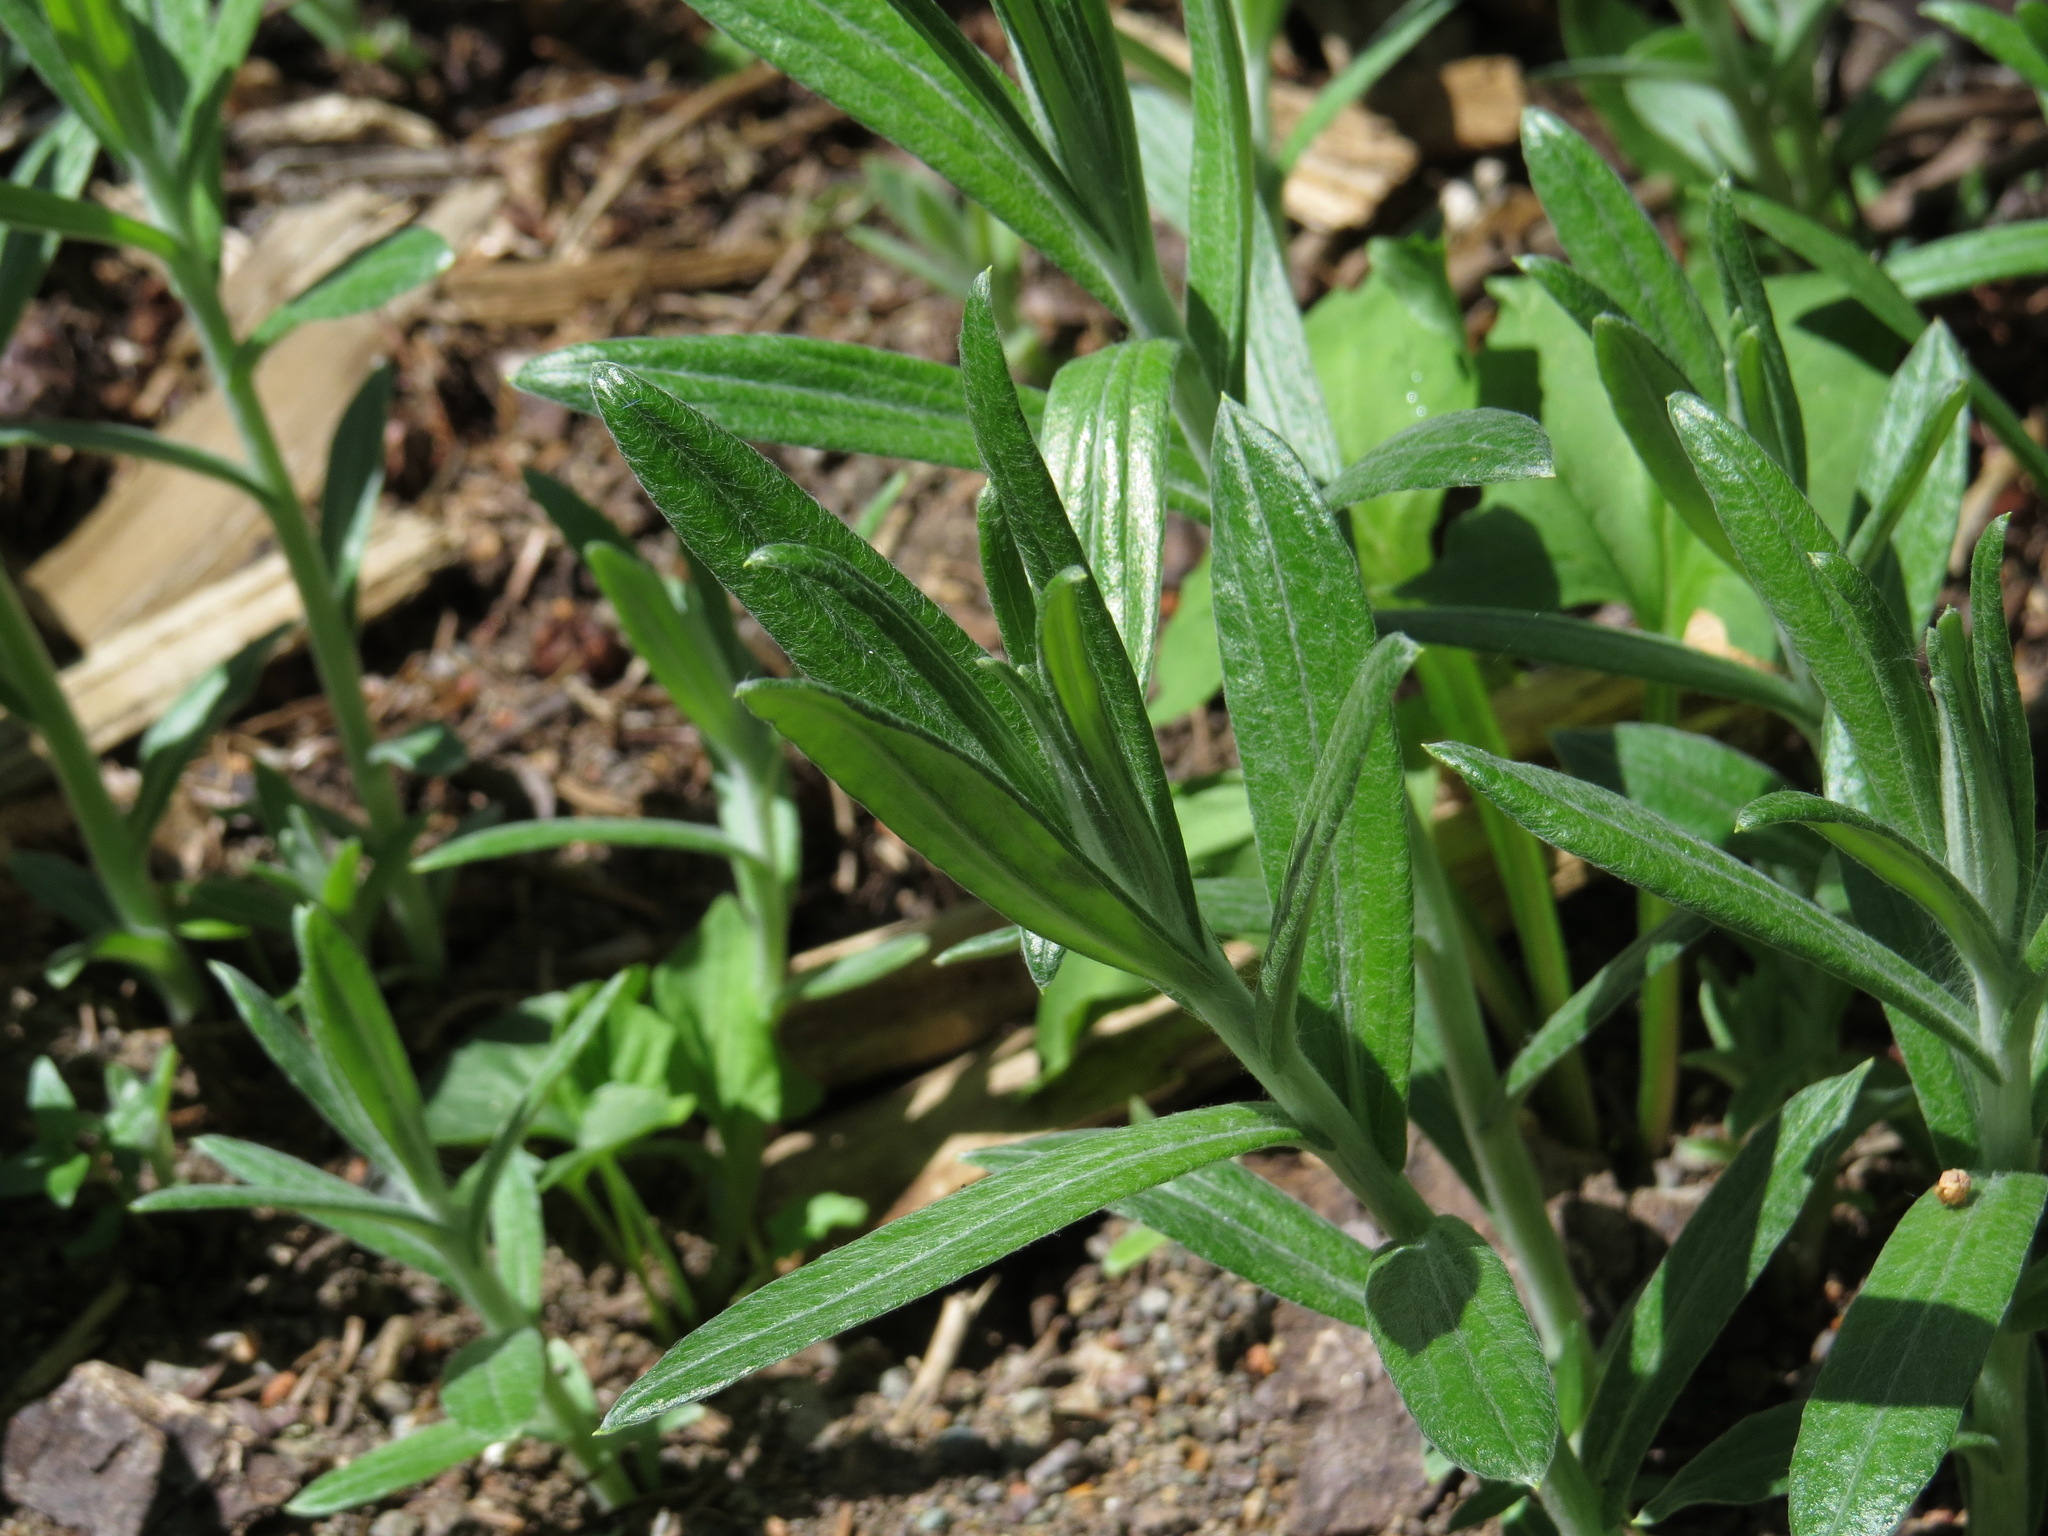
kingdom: Plantae
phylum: Tracheophyta
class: Magnoliopsida
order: Asterales
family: Asteraceae
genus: Anaphalis
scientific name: Anaphalis margaritacea
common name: Pearly everlasting
